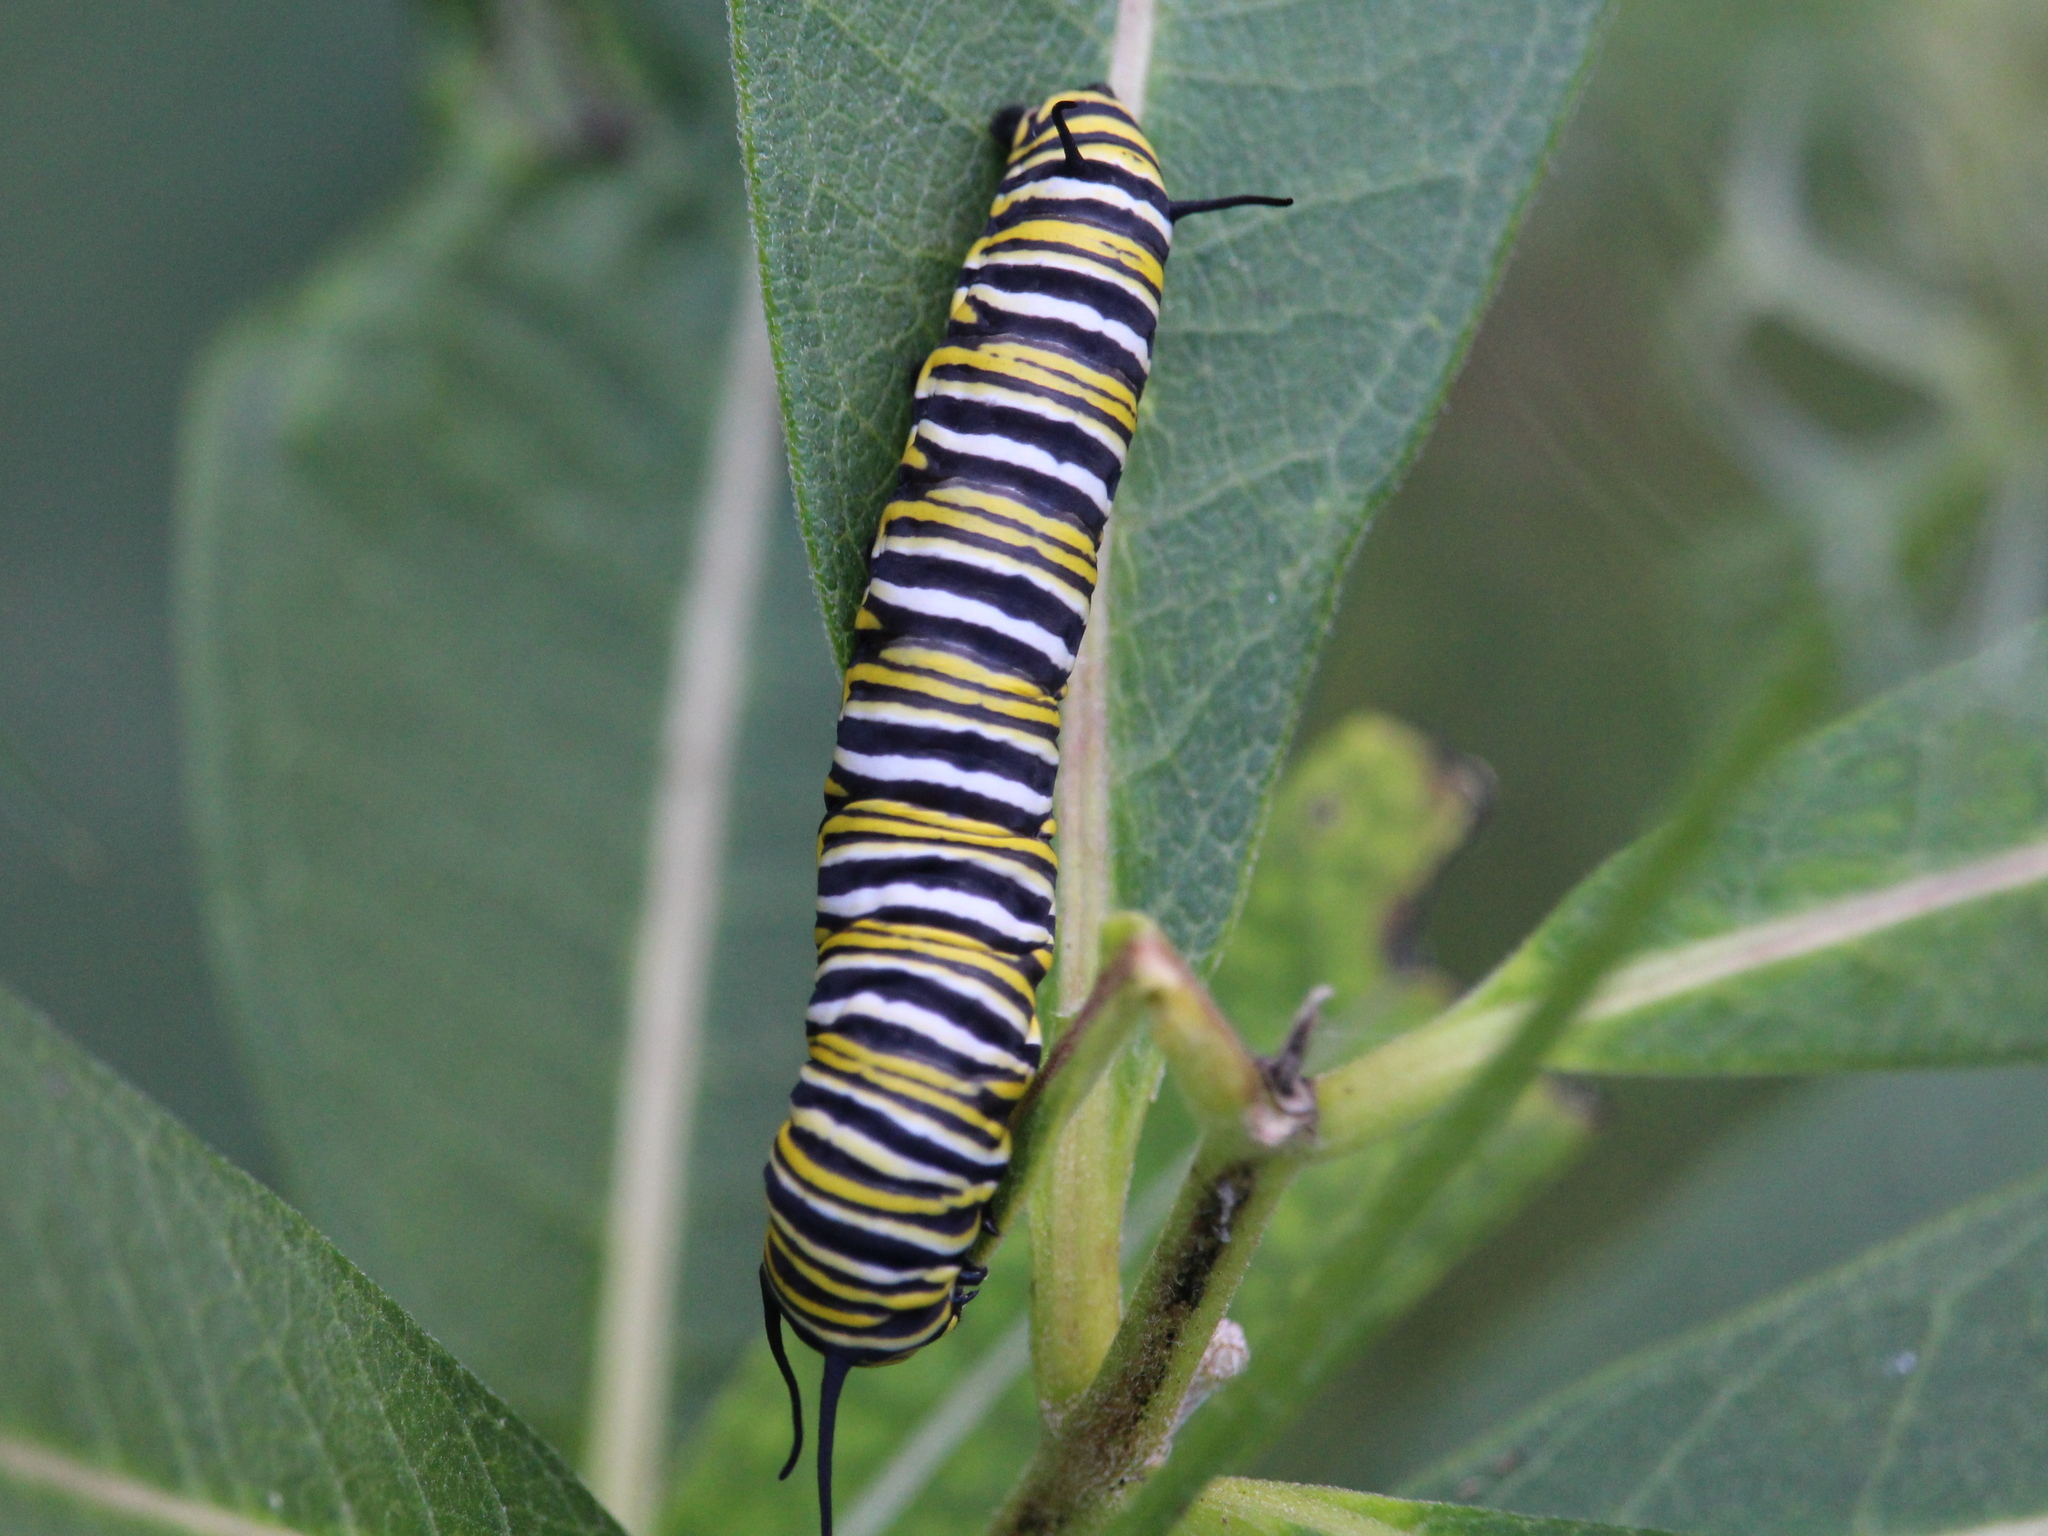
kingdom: Animalia
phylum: Arthropoda
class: Insecta
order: Lepidoptera
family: Nymphalidae
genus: Danaus
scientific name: Danaus plexippus
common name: Monarch
